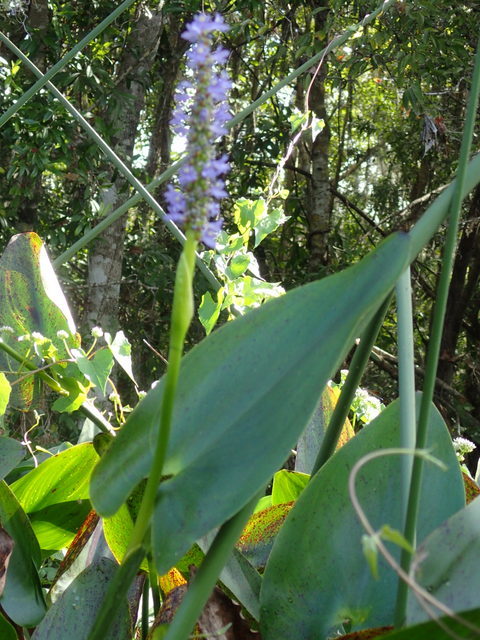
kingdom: Plantae
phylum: Tracheophyta
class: Liliopsida
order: Commelinales
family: Pontederiaceae
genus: Pontederia
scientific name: Pontederia cordata
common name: Pickerelweed
